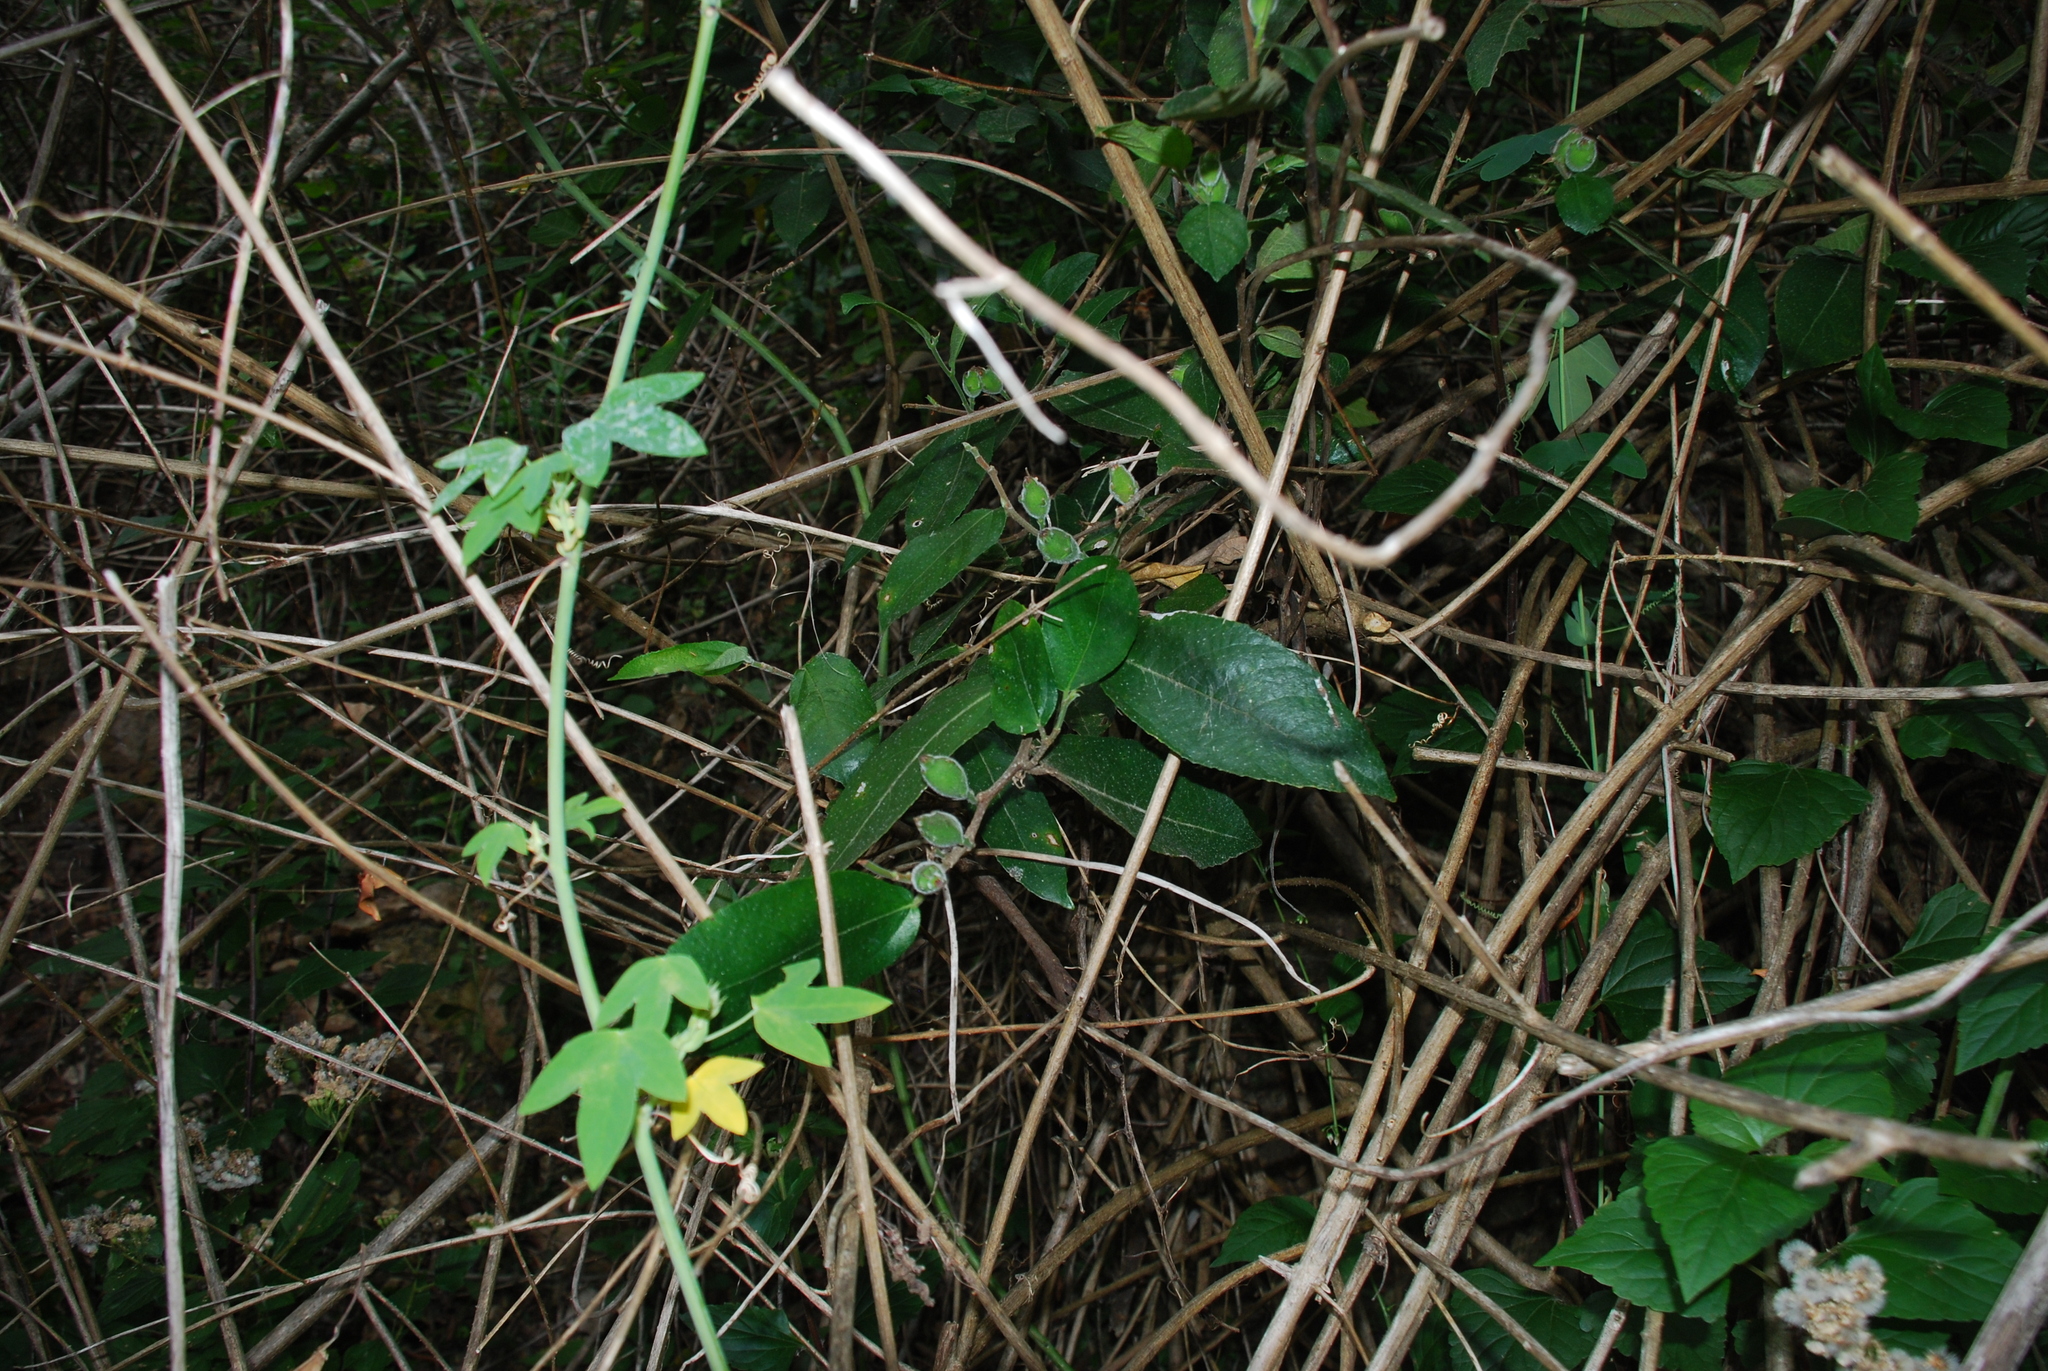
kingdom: Plantae
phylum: Tracheophyta
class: Magnoliopsida
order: Rosales
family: Moraceae
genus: Ficus
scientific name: Ficus coronata
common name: Creek sandpaper fig
